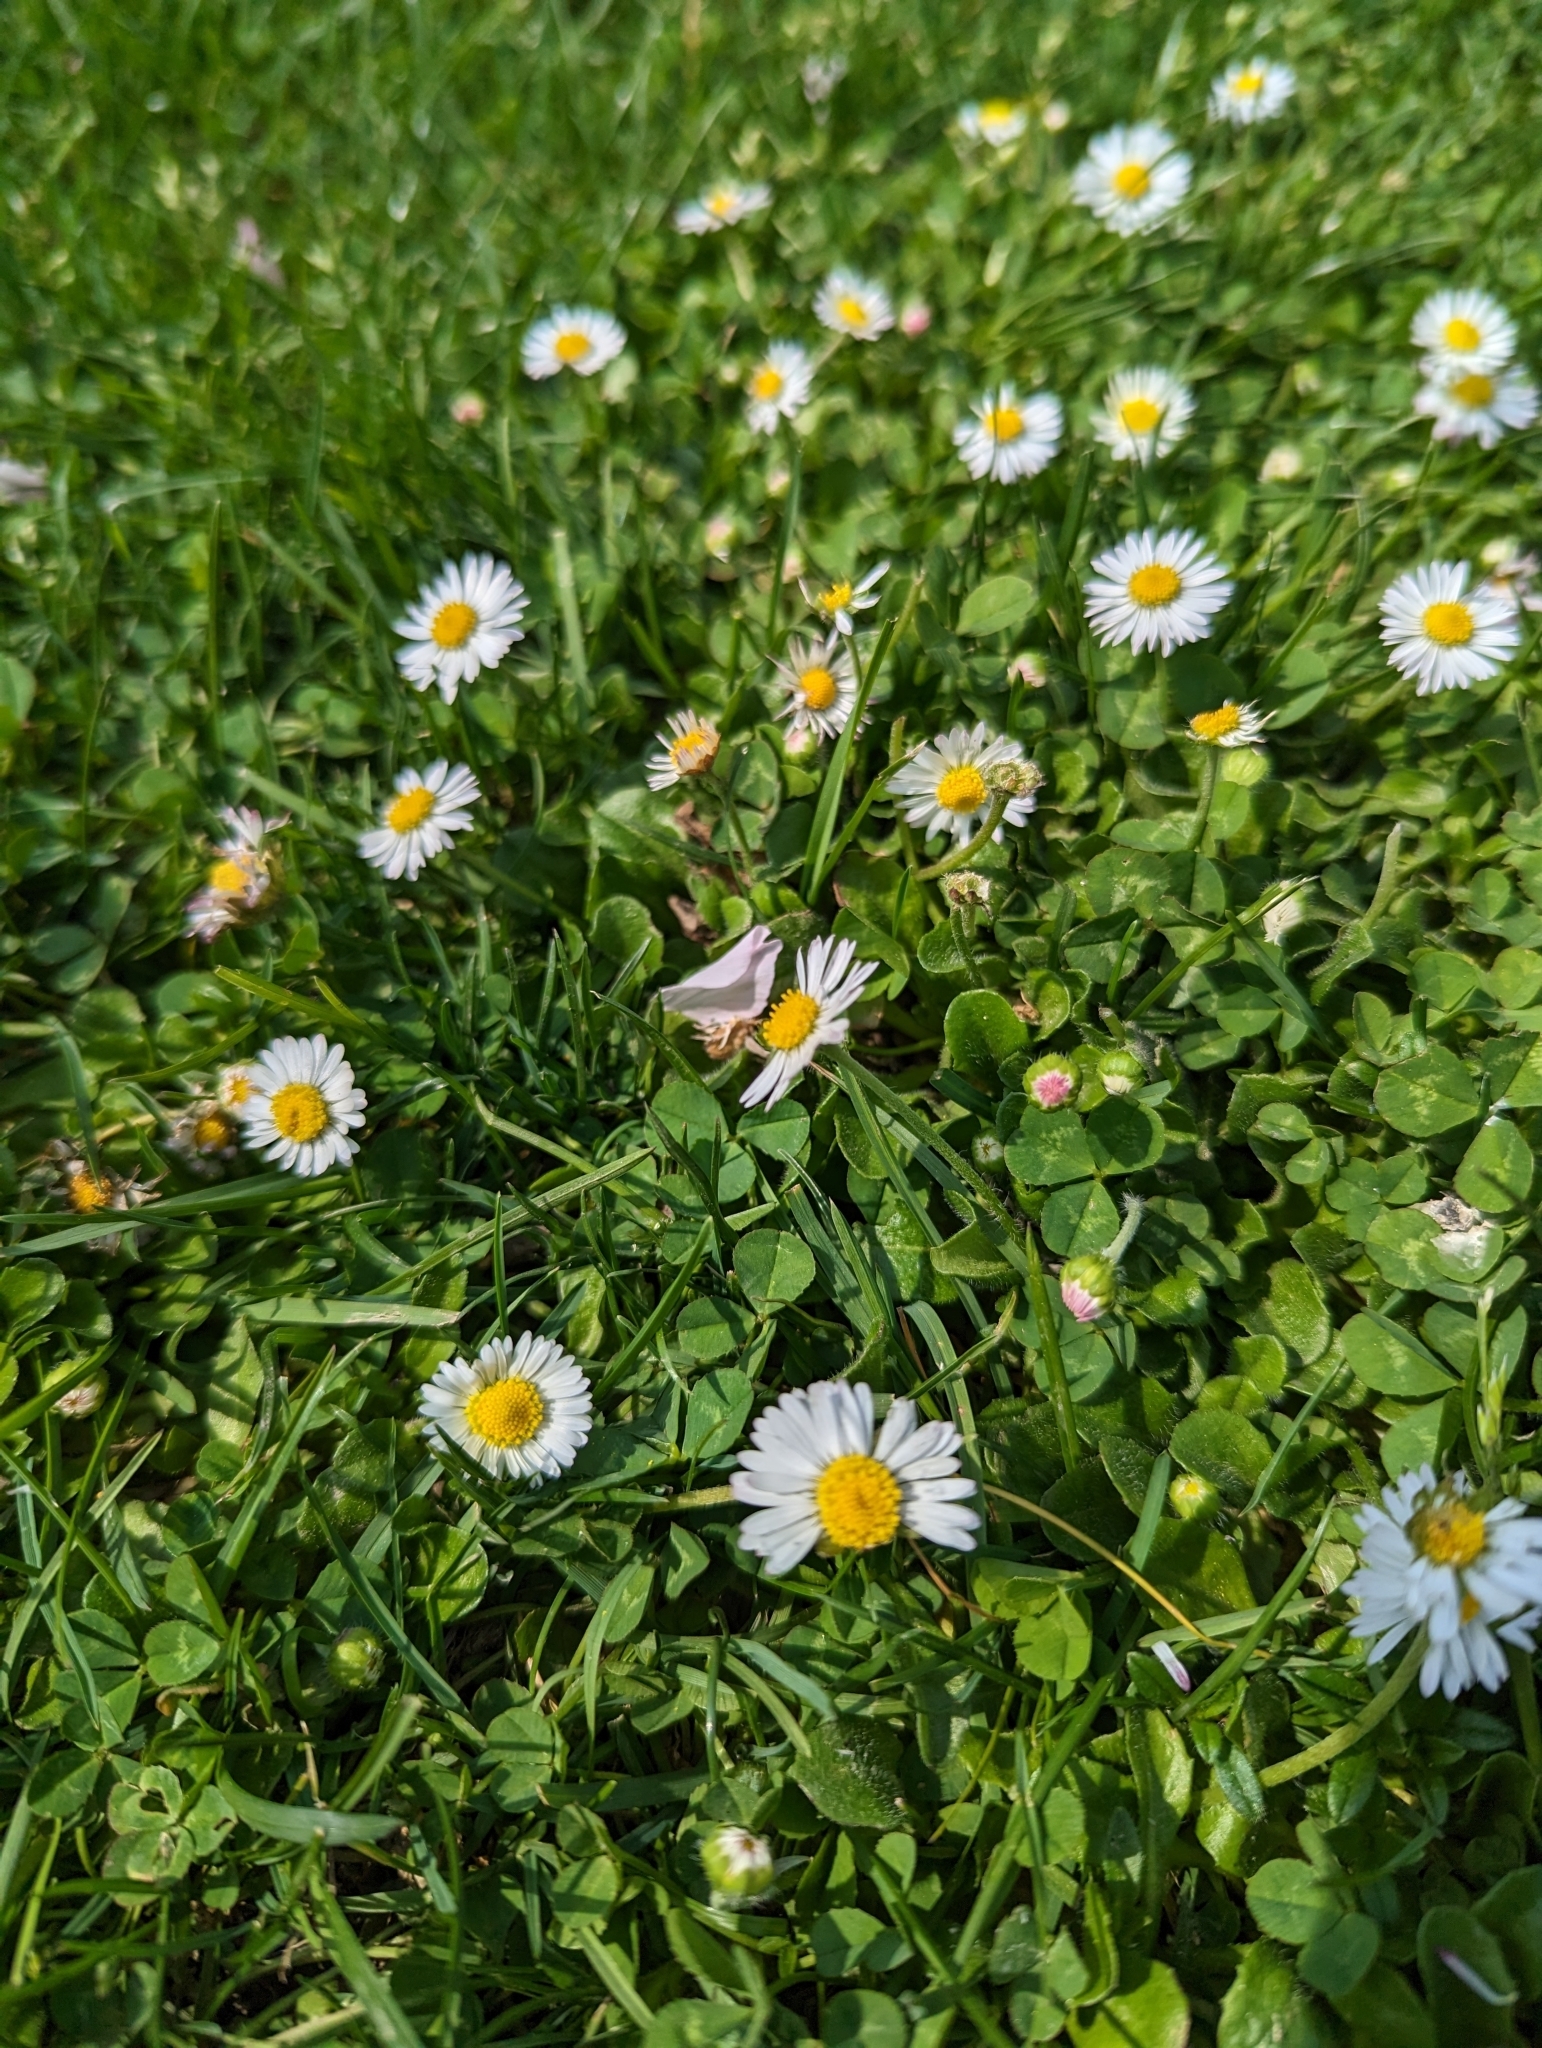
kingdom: Plantae
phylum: Tracheophyta
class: Magnoliopsida
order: Asterales
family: Asteraceae
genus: Bellis
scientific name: Bellis perennis
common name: Lawndaisy
